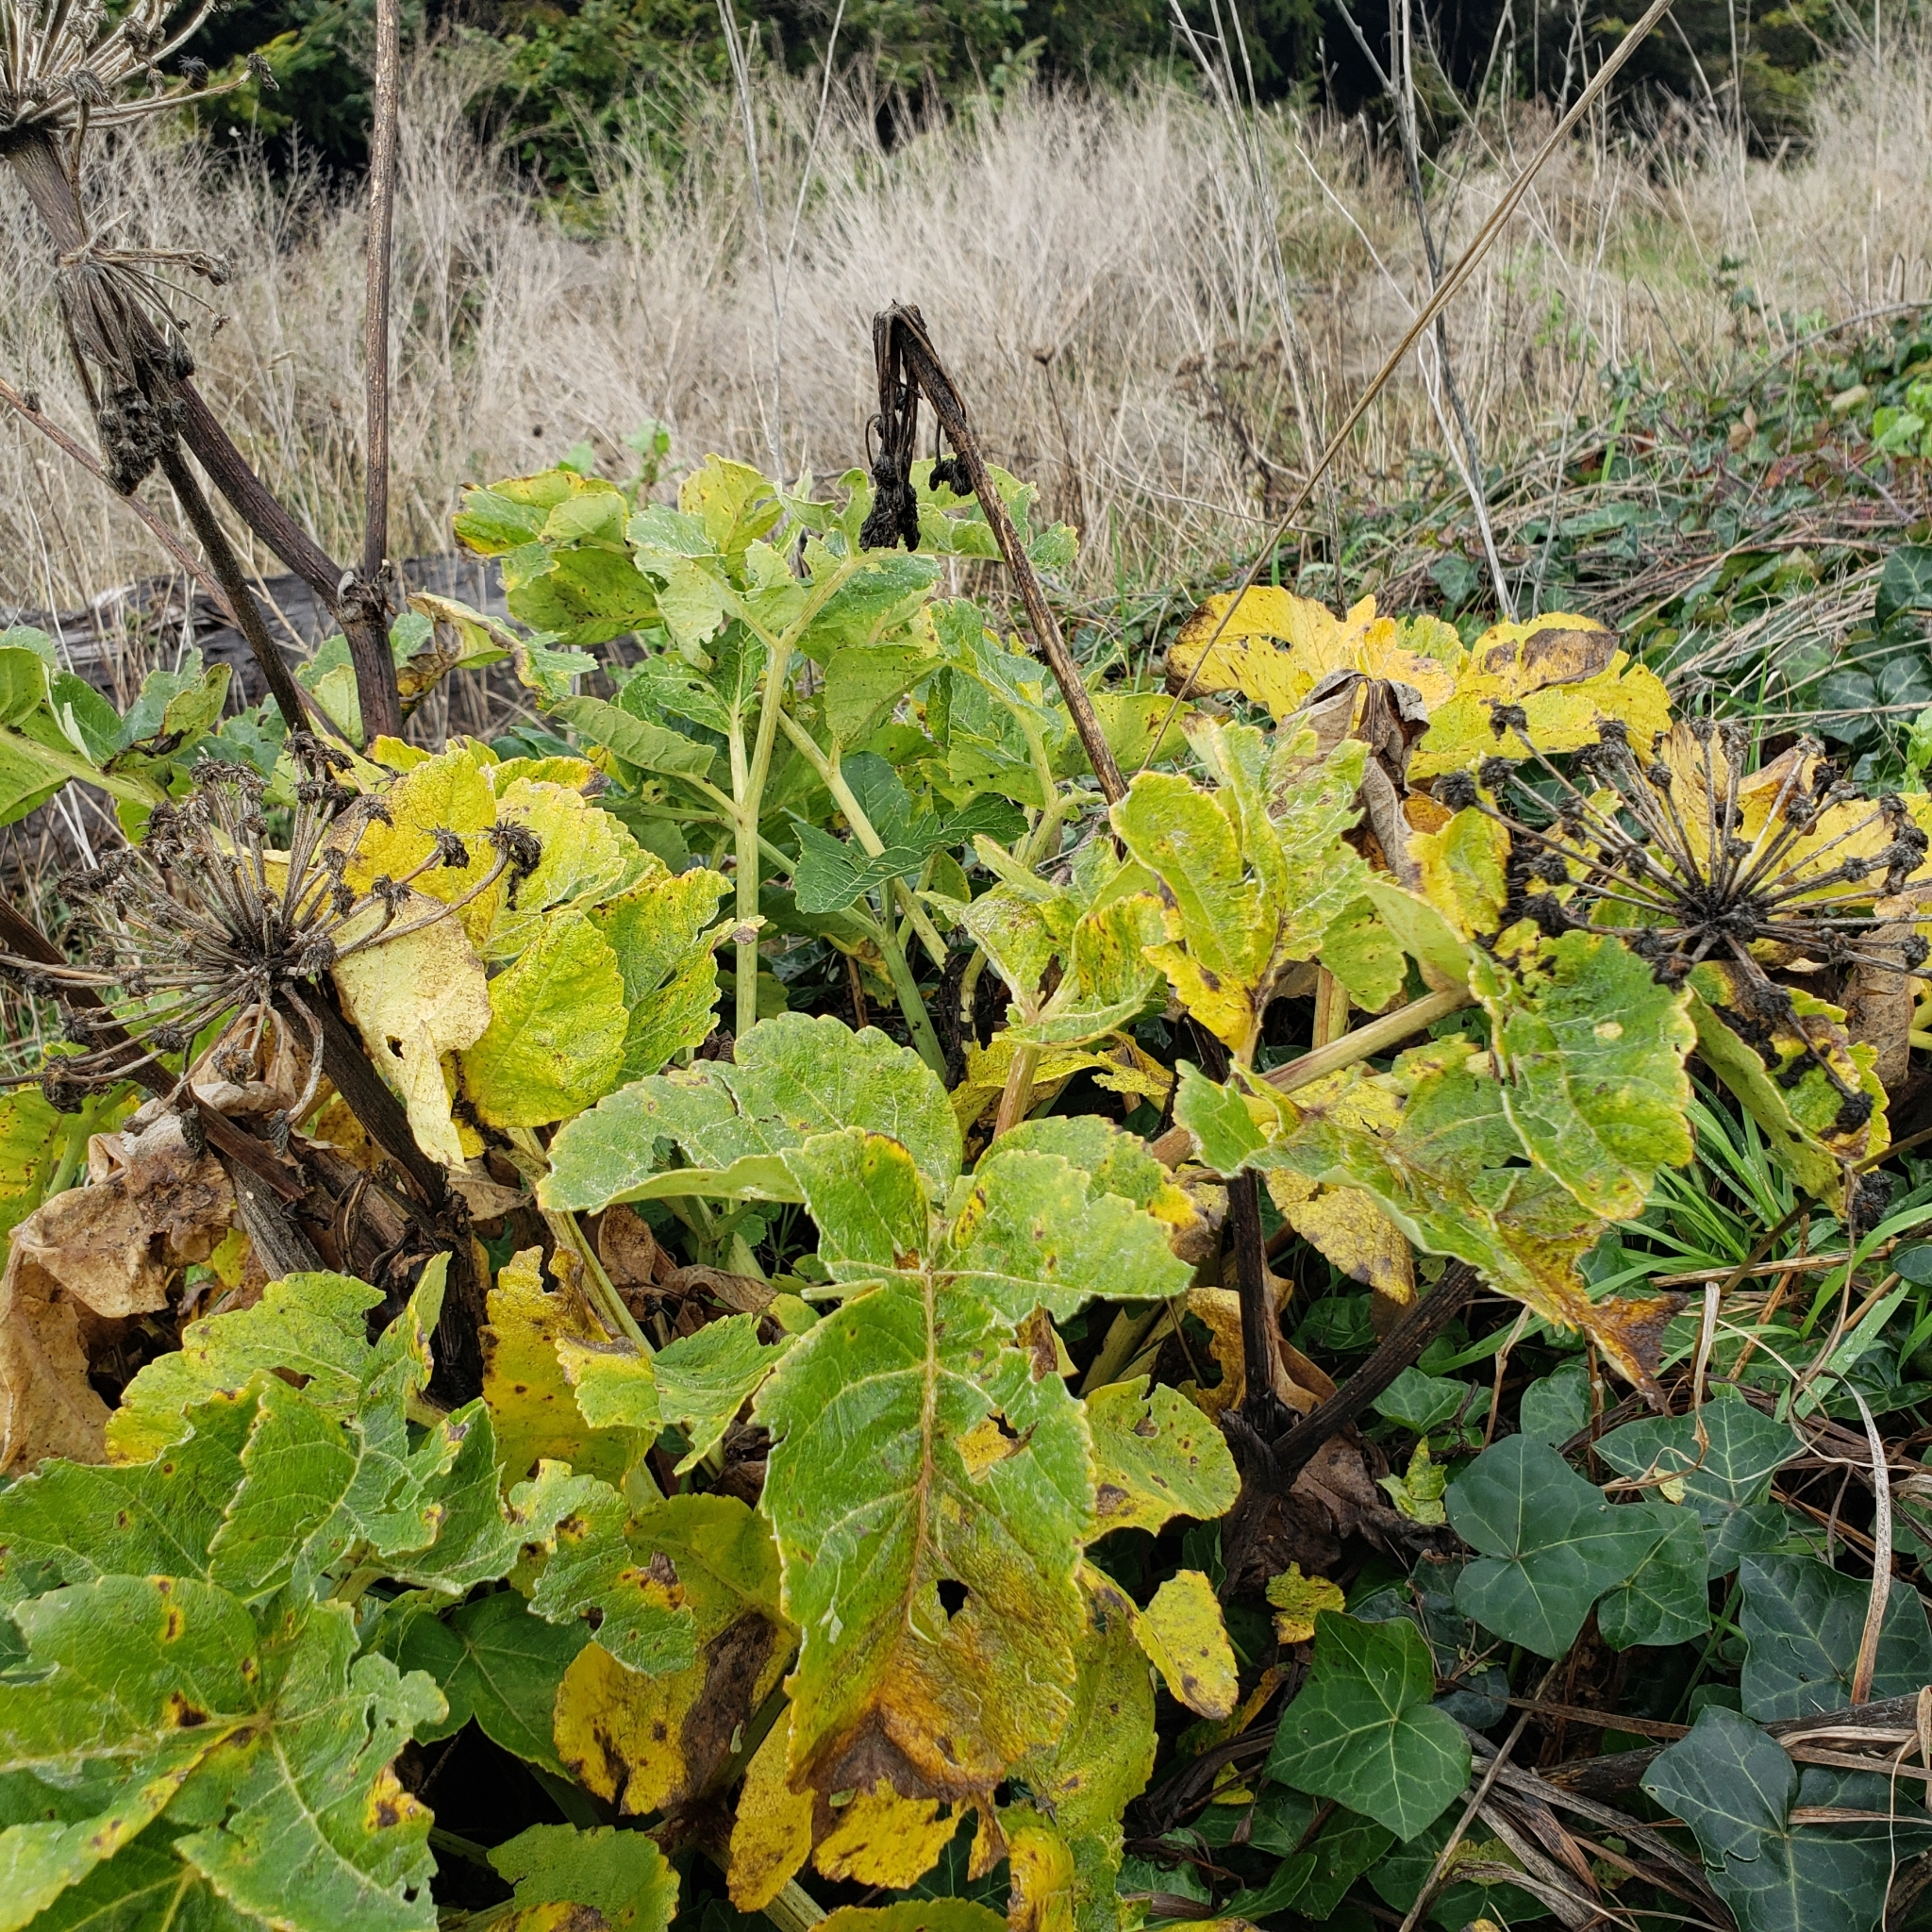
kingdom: Plantae
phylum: Tracheophyta
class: Magnoliopsida
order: Apiales
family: Apiaceae
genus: Heracleum
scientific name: Heracleum maximum
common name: American cow parsnip
